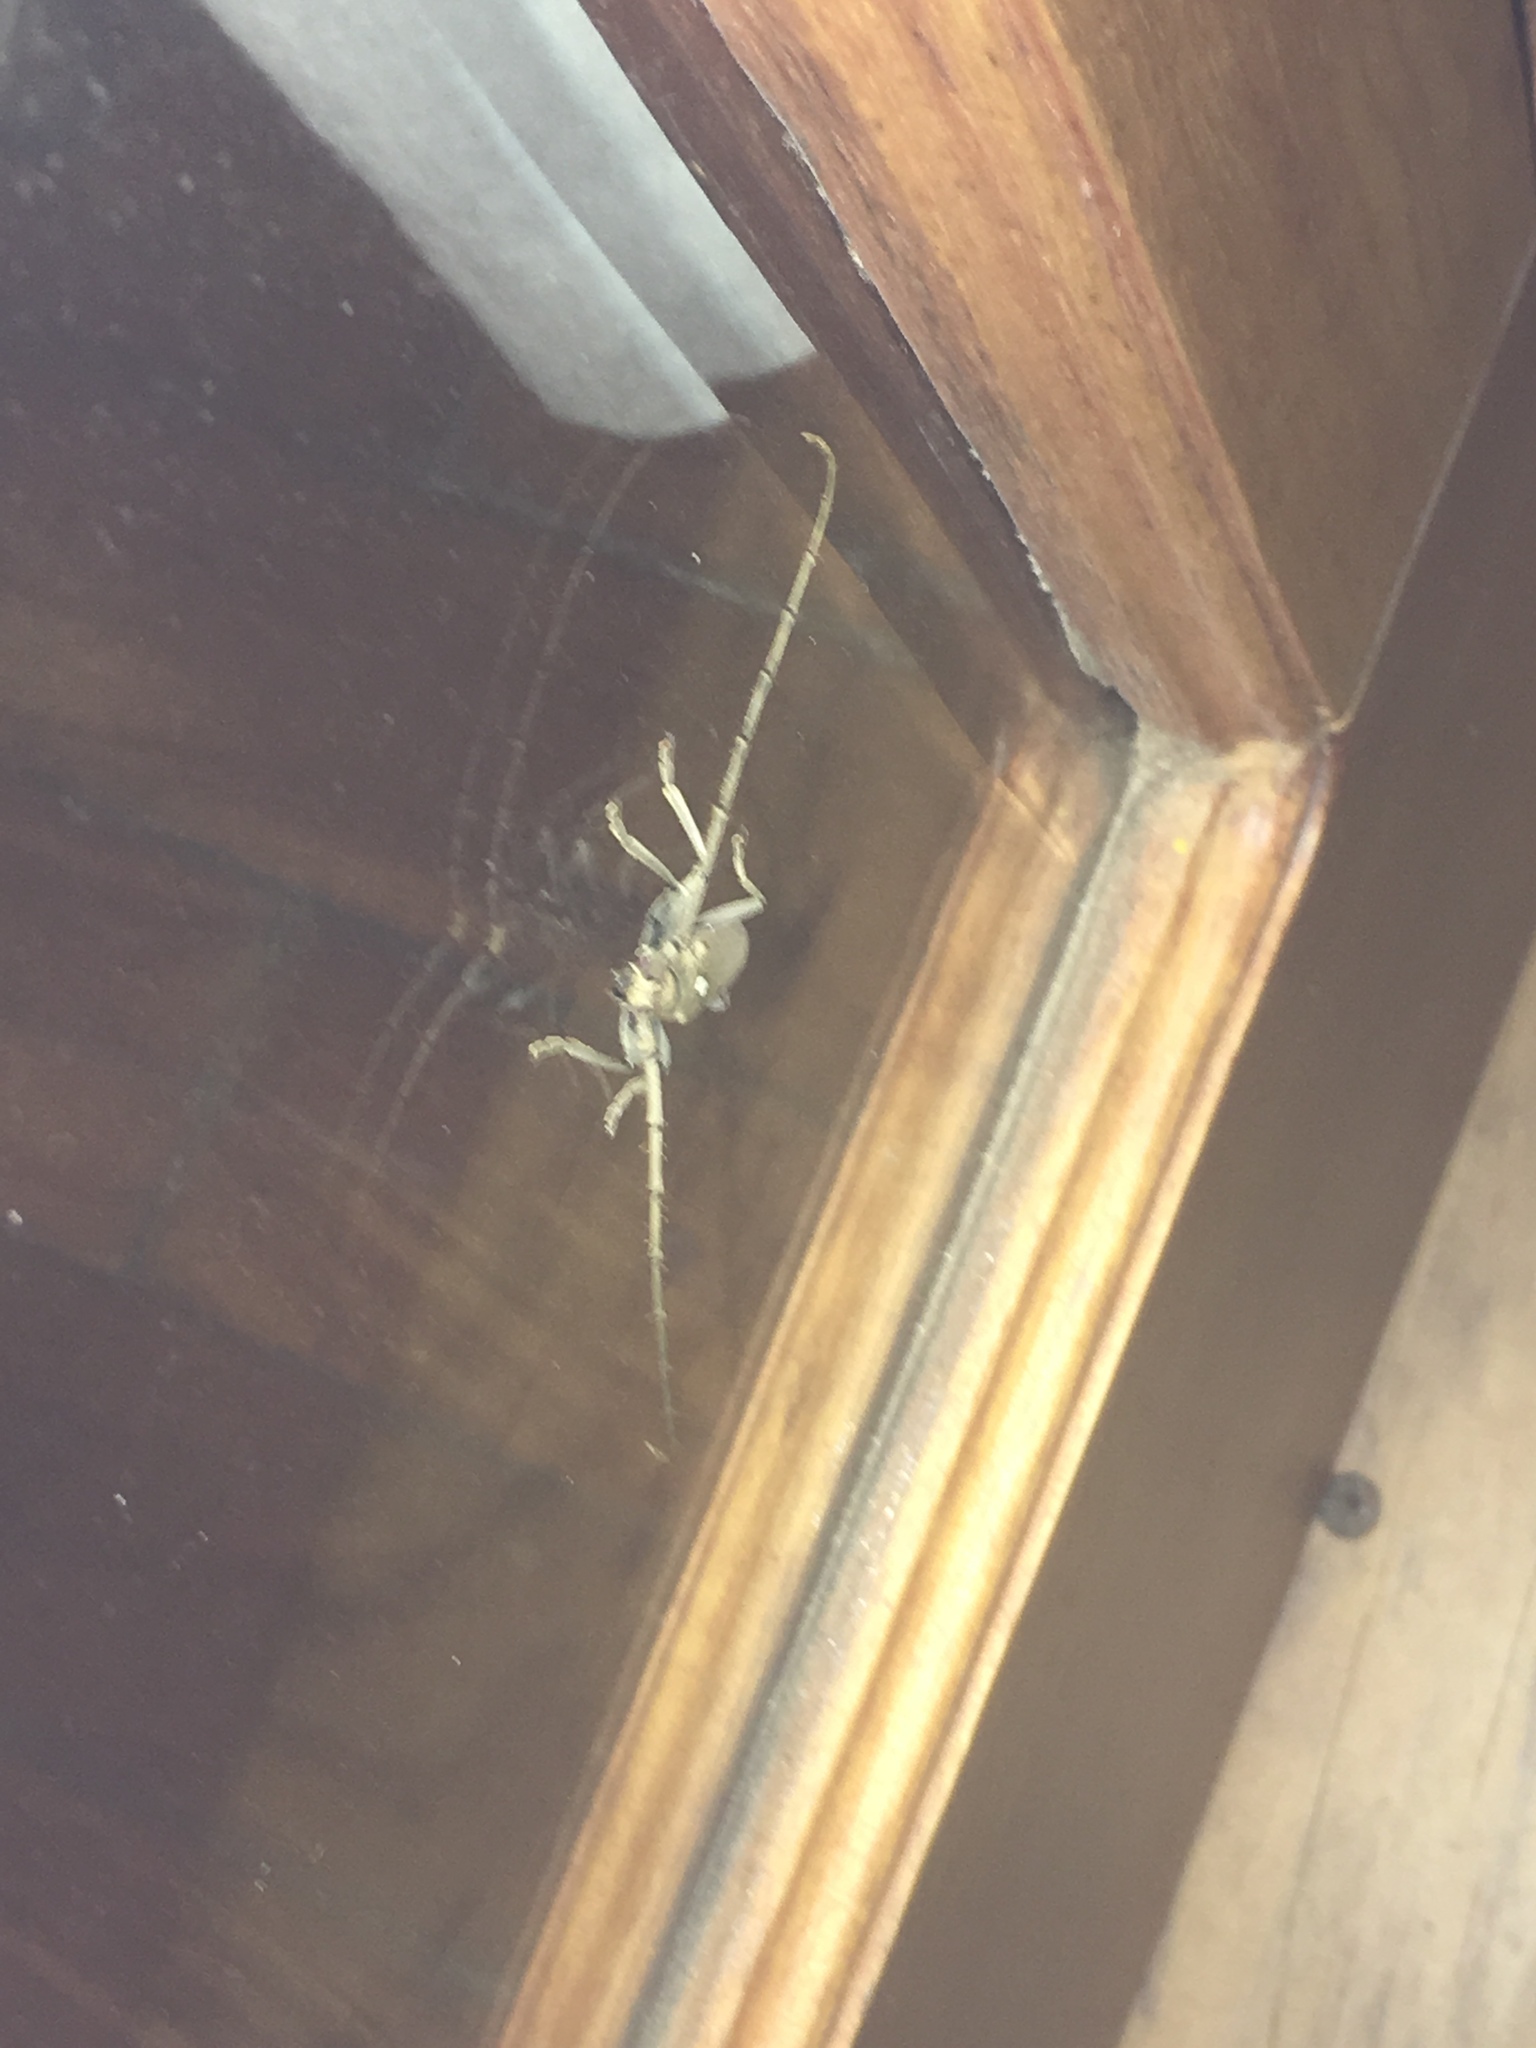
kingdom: Animalia
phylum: Arthropoda
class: Insecta
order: Coleoptera
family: Cerambycidae
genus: Perilasius
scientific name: Perilasius championi
